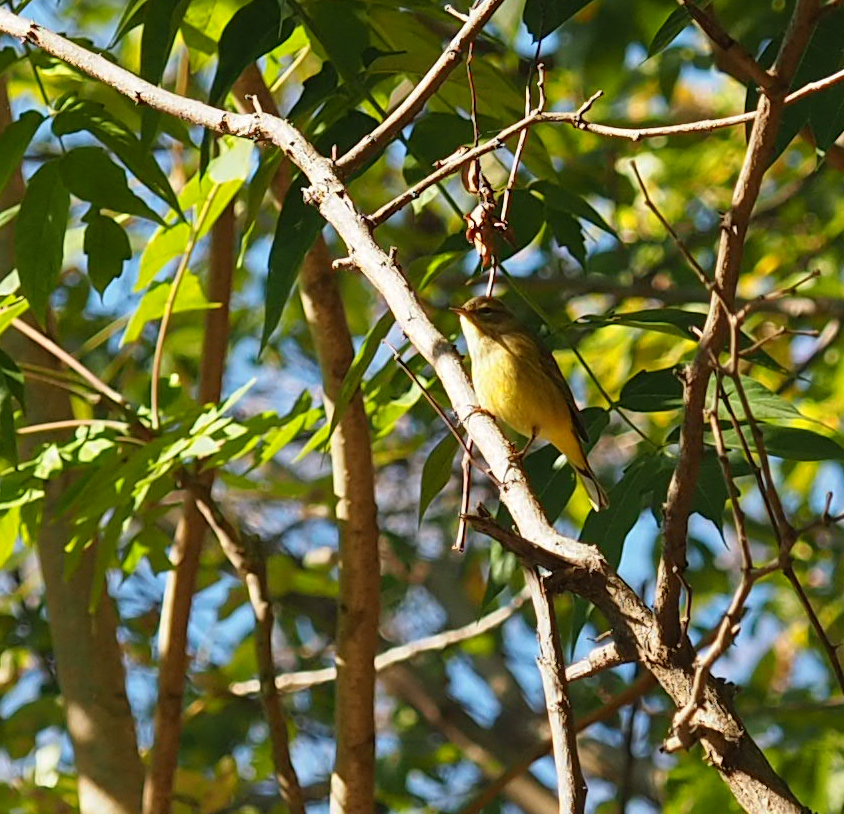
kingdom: Animalia
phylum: Chordata
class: Aves
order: Passeriformes
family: Parulidae
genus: Setophaga
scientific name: Setophaga palmarum
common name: Palm warbler
